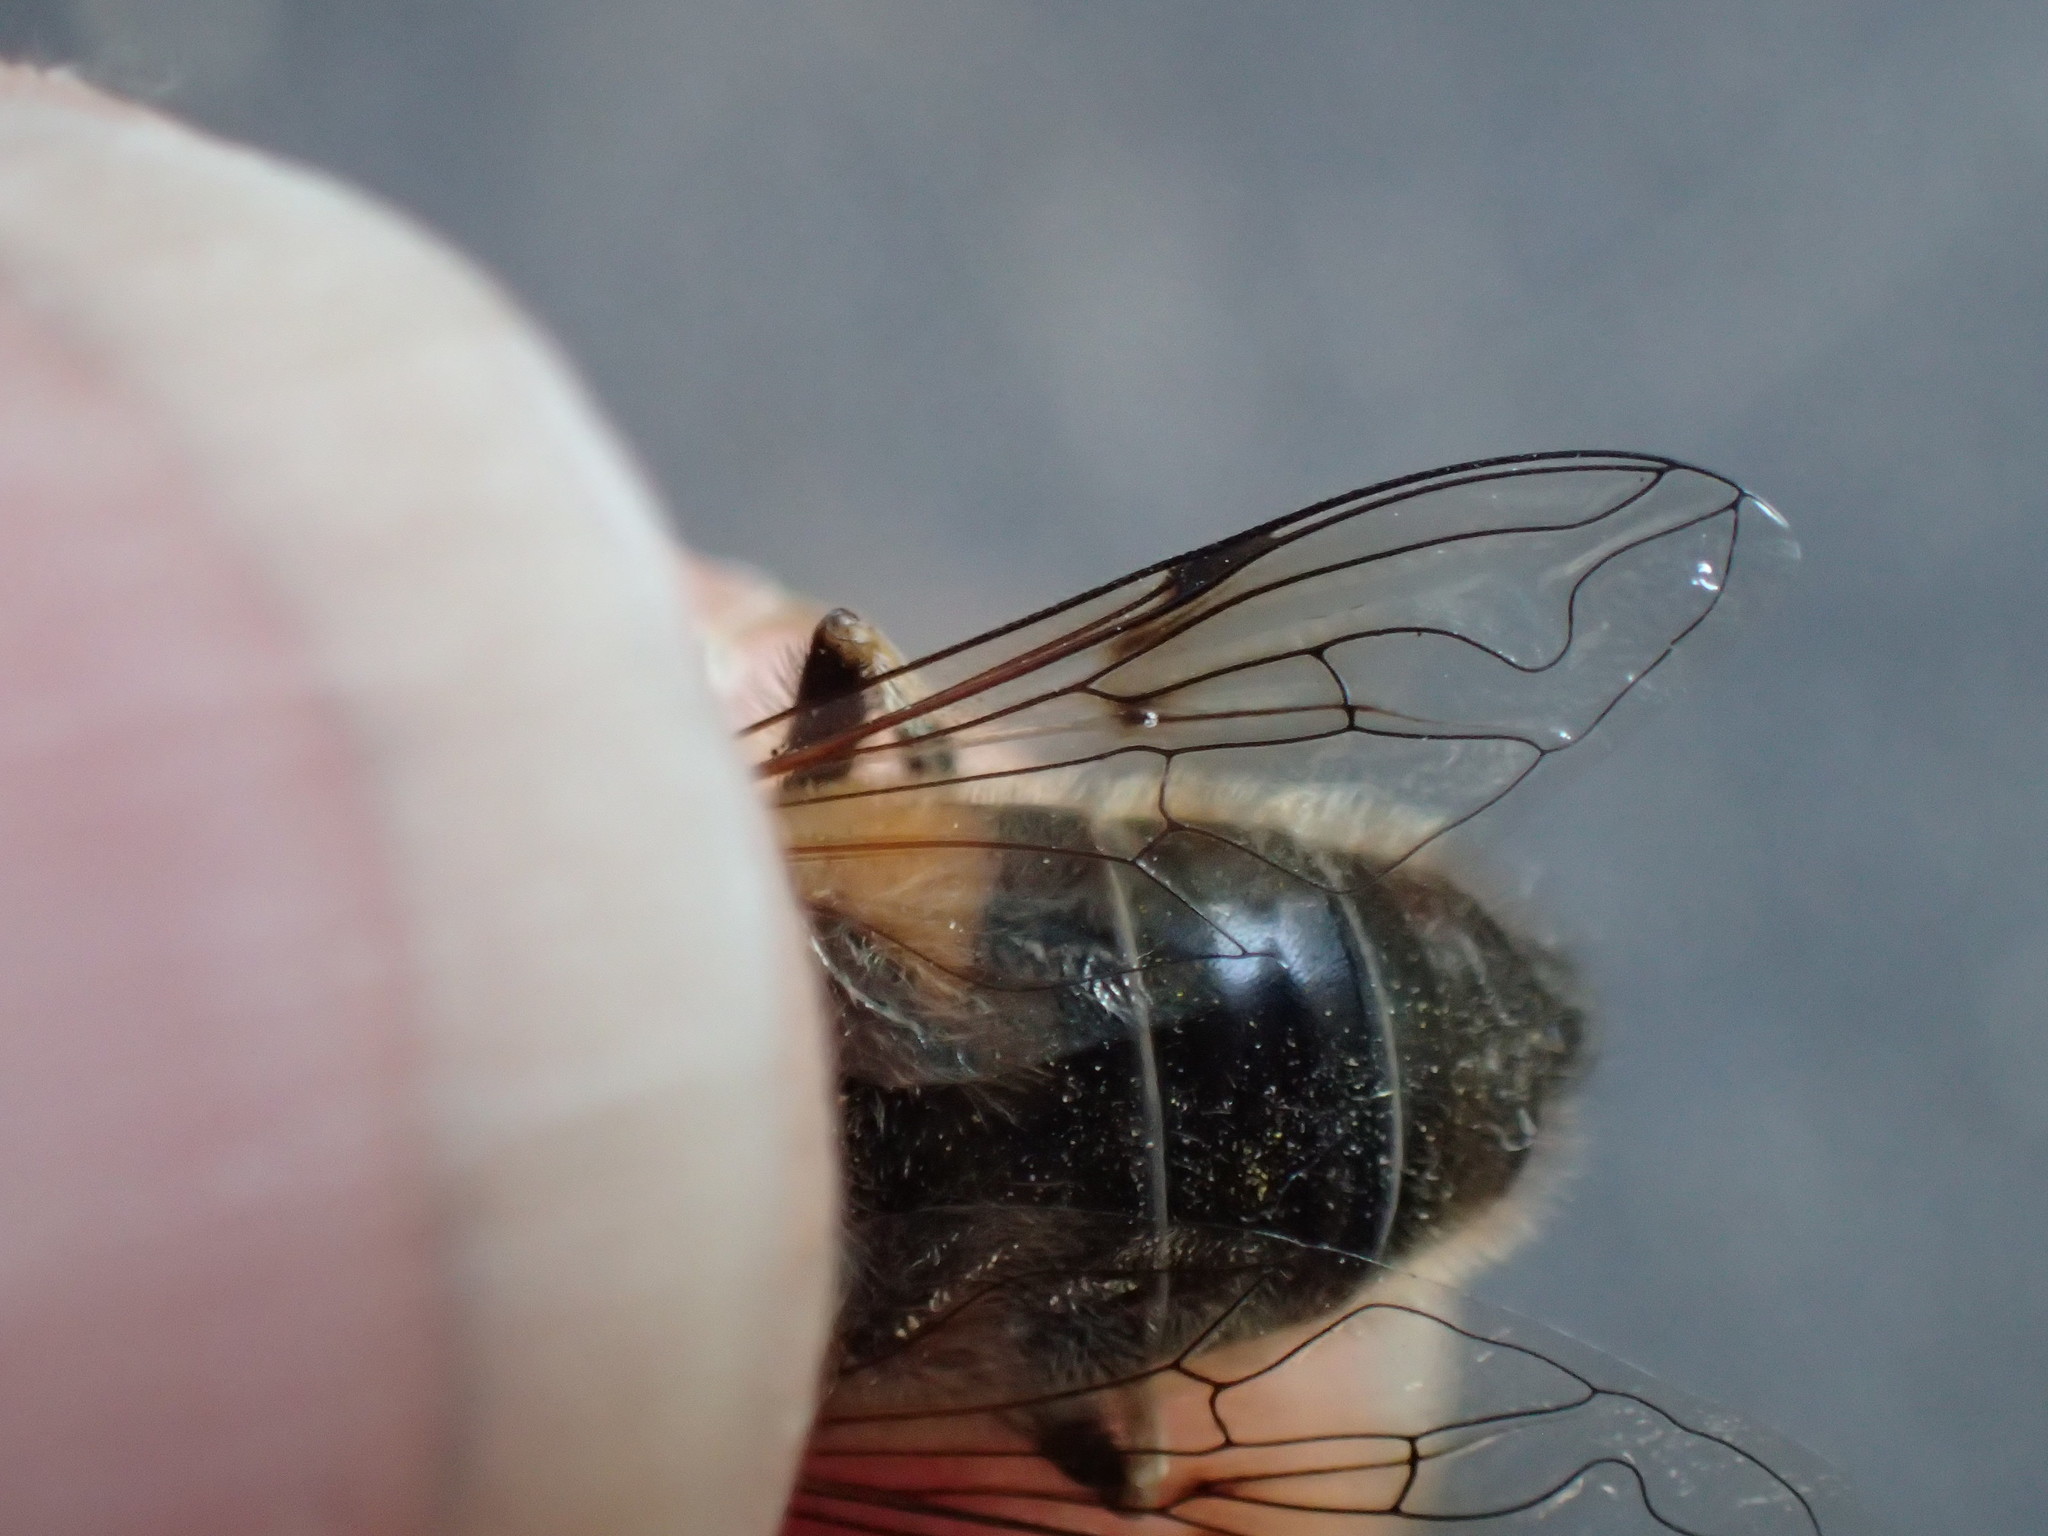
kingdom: Animalia
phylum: Arthropoda
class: Insecta
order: Diptera
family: Syrphidae
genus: Eristalis
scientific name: Eristalis pertinax
